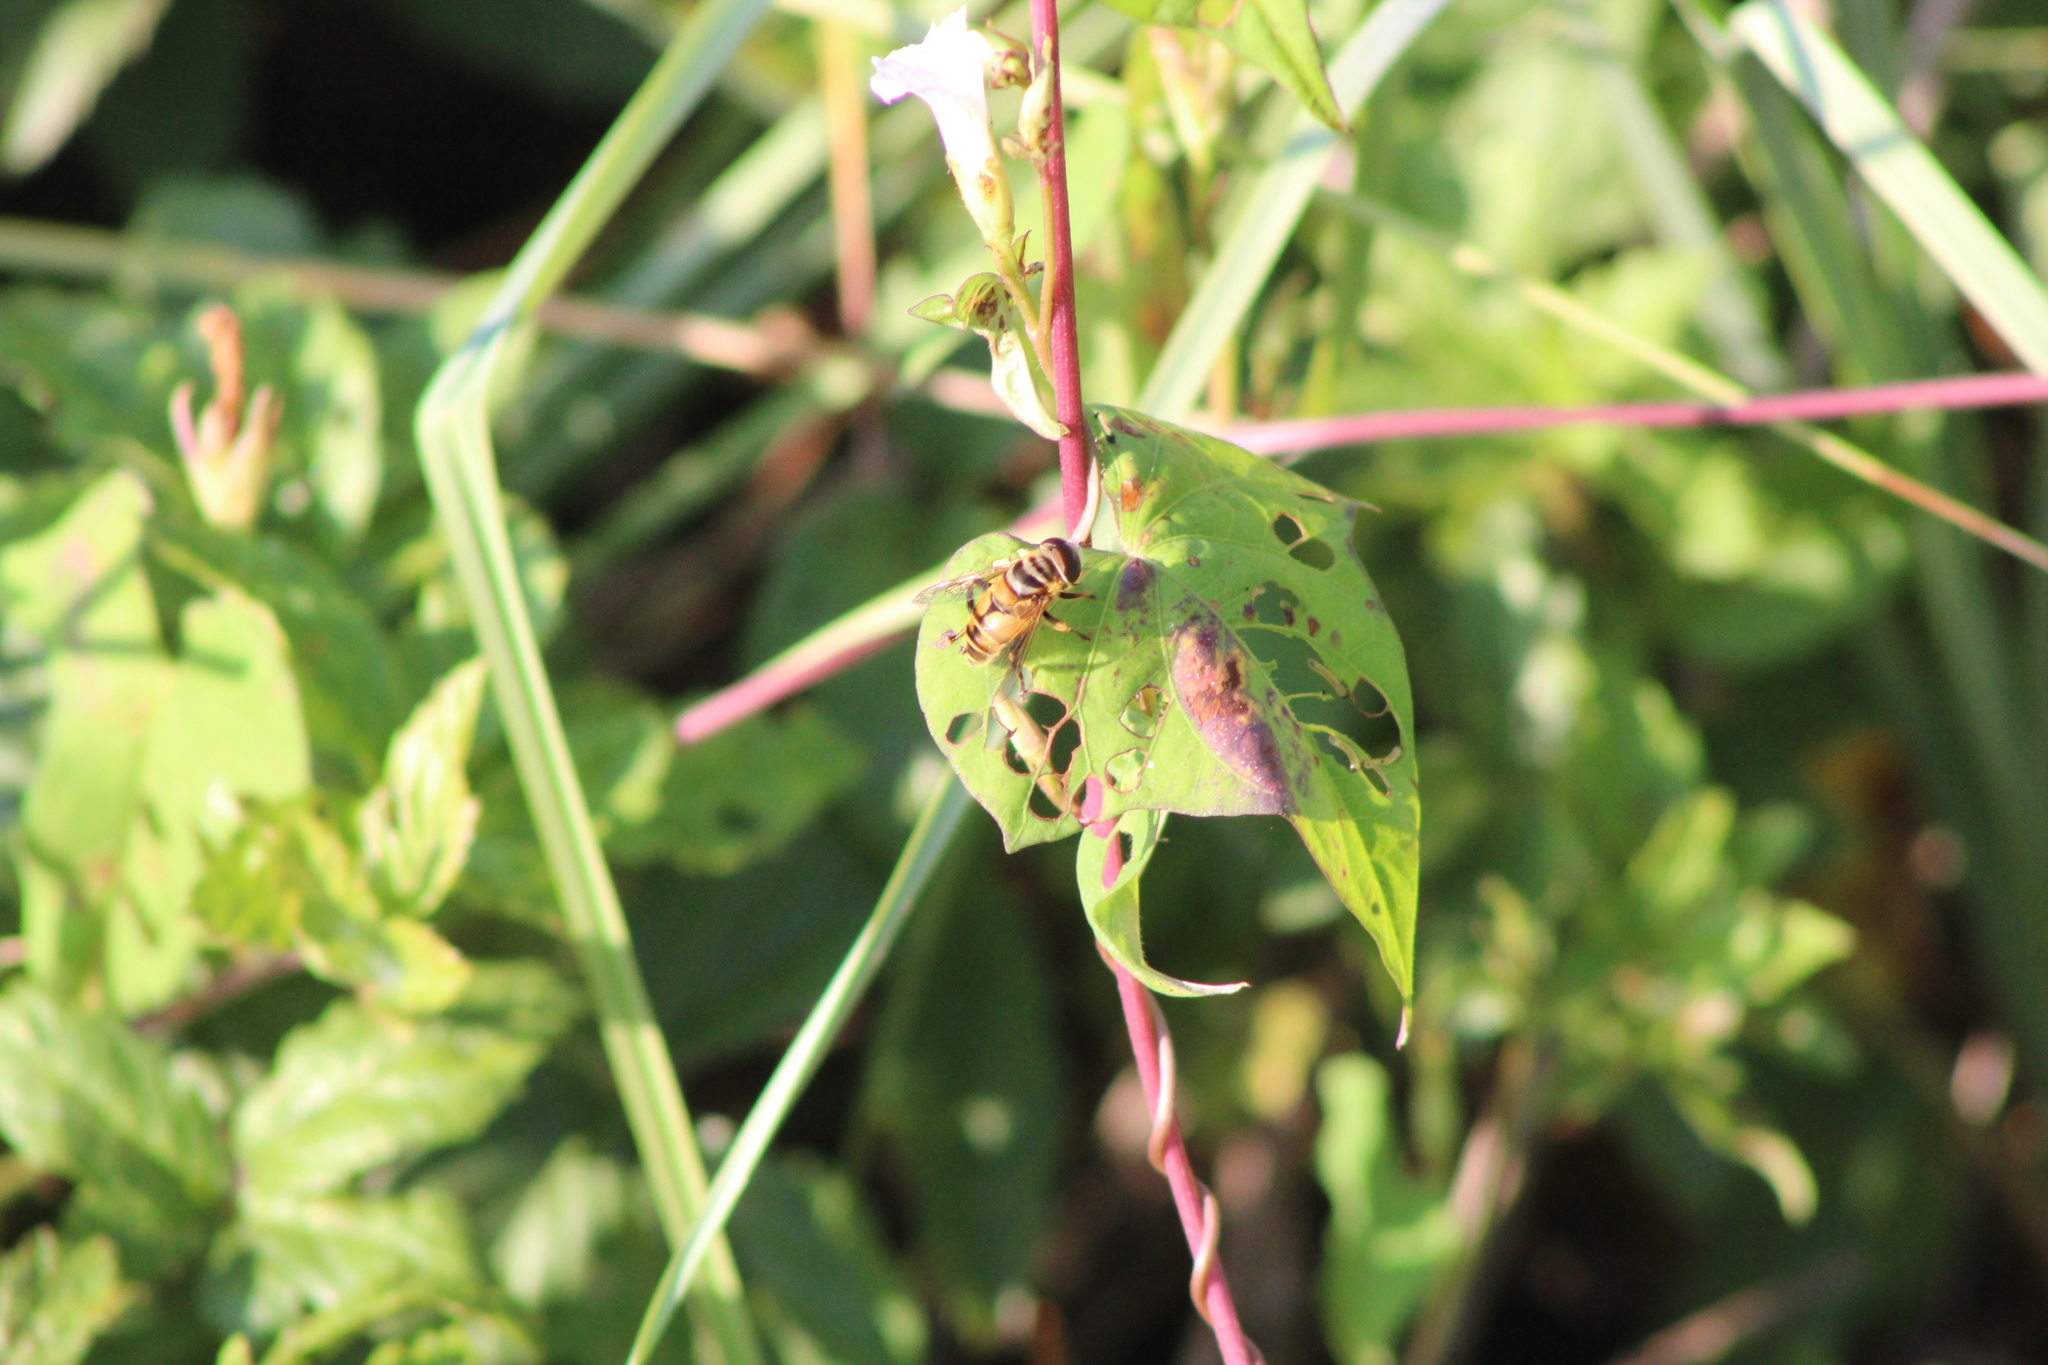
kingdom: Animalia
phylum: Arthropoda
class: Insecta
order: Diptera
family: Syrphidae
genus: Palpada
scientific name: Palpada vinetorum
